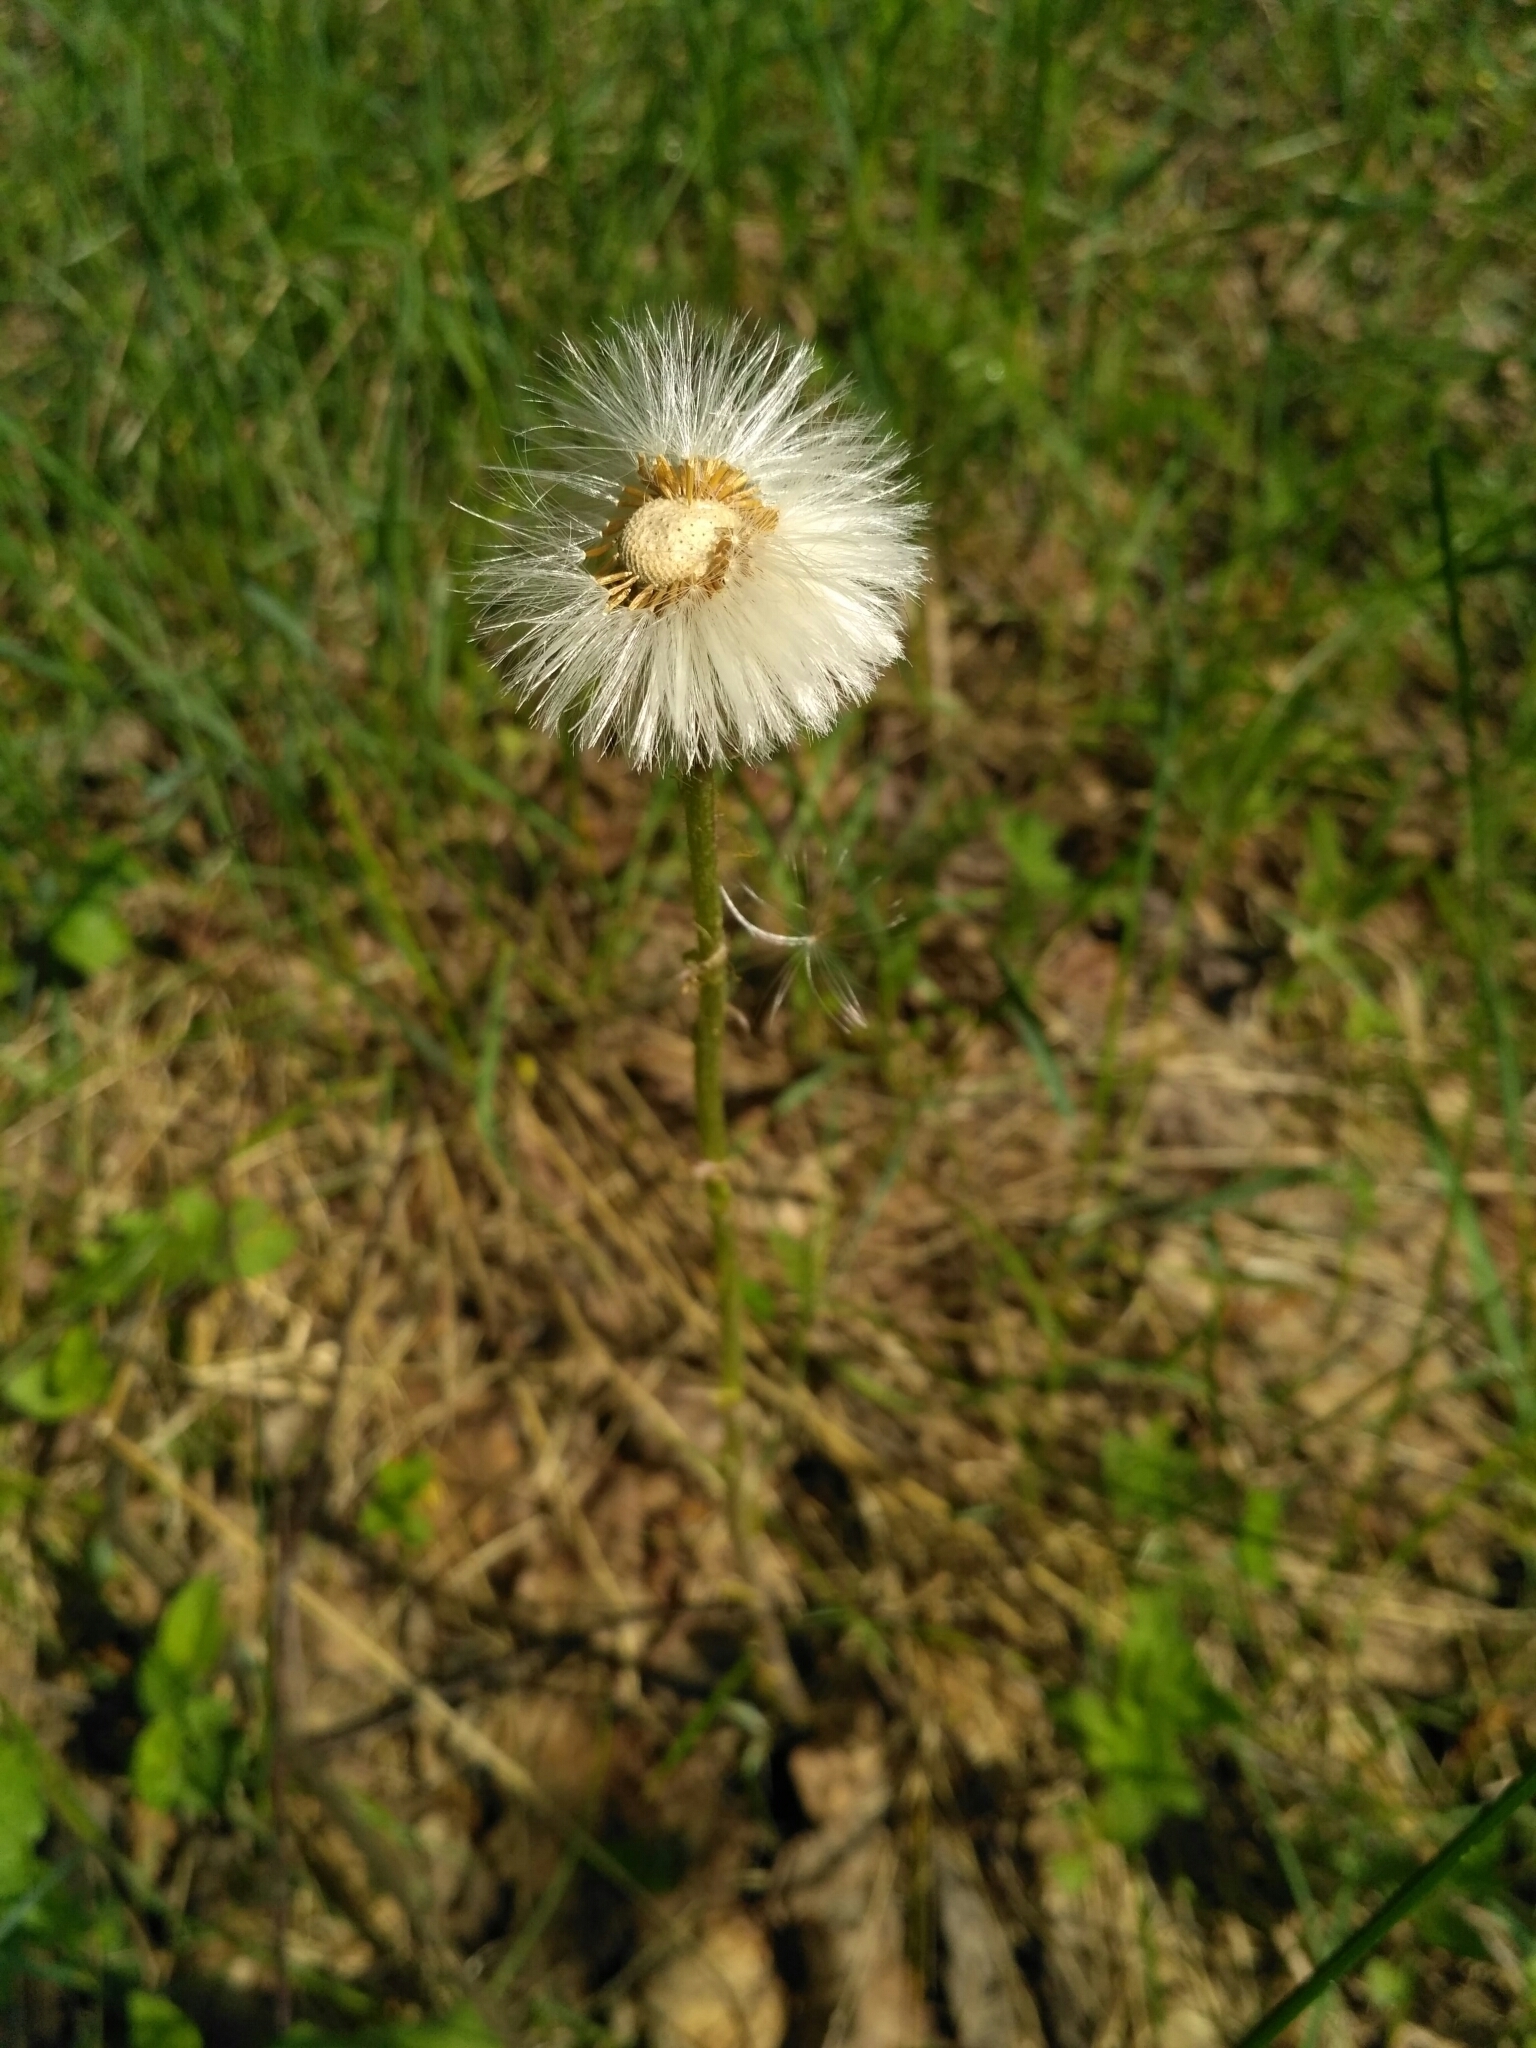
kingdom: Plantae
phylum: Tracheophyta
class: Magnoliopsida
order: Asterales
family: Asteraceae
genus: Tussilago
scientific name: Tussilago farfara
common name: Coltsfoot
